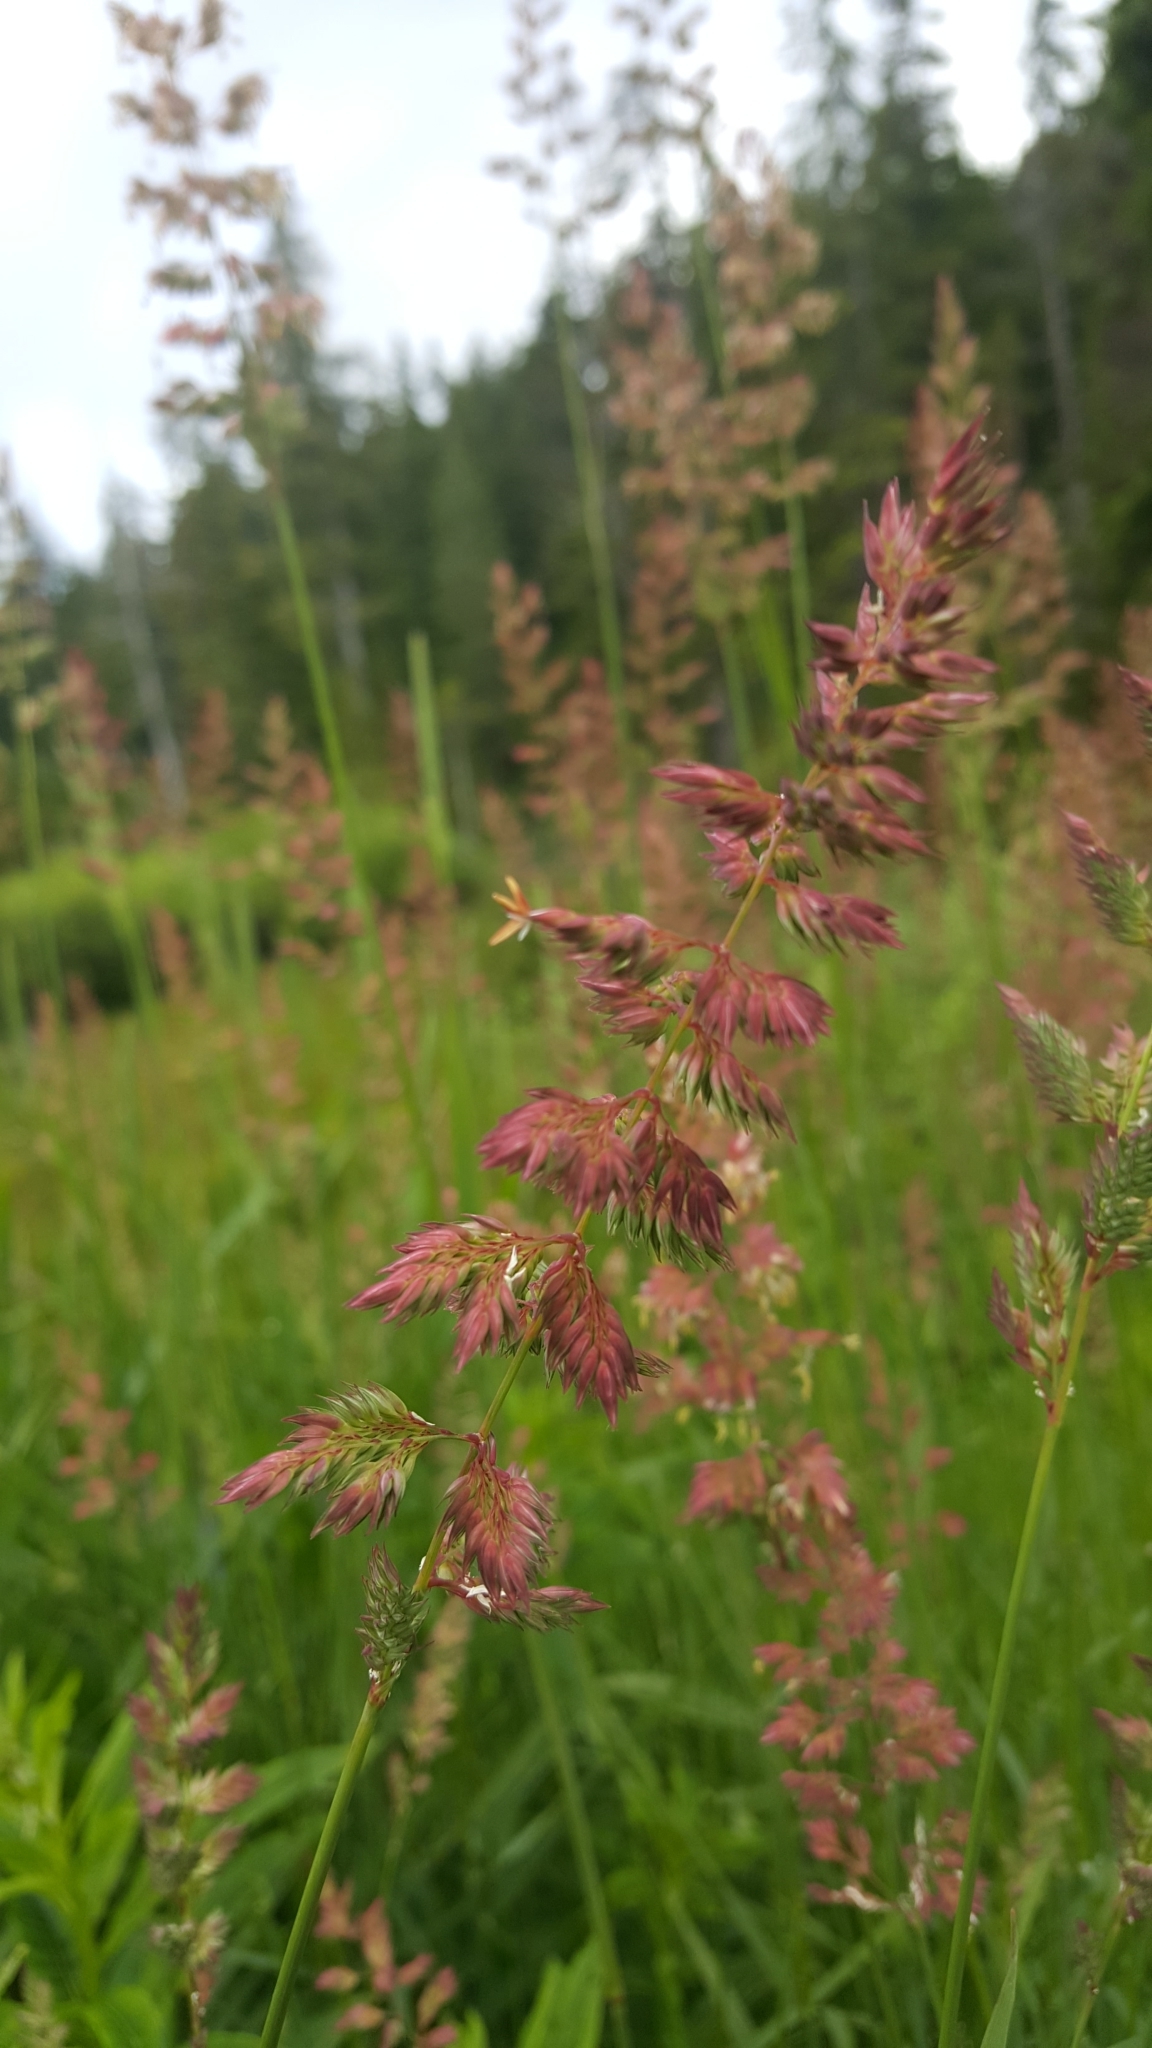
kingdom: Plantae
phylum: Tracheophyta
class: Liliopsida
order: Poales
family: Poaceae
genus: Phalaris
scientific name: Phalaris arundinacea
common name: Reed canary-grass
